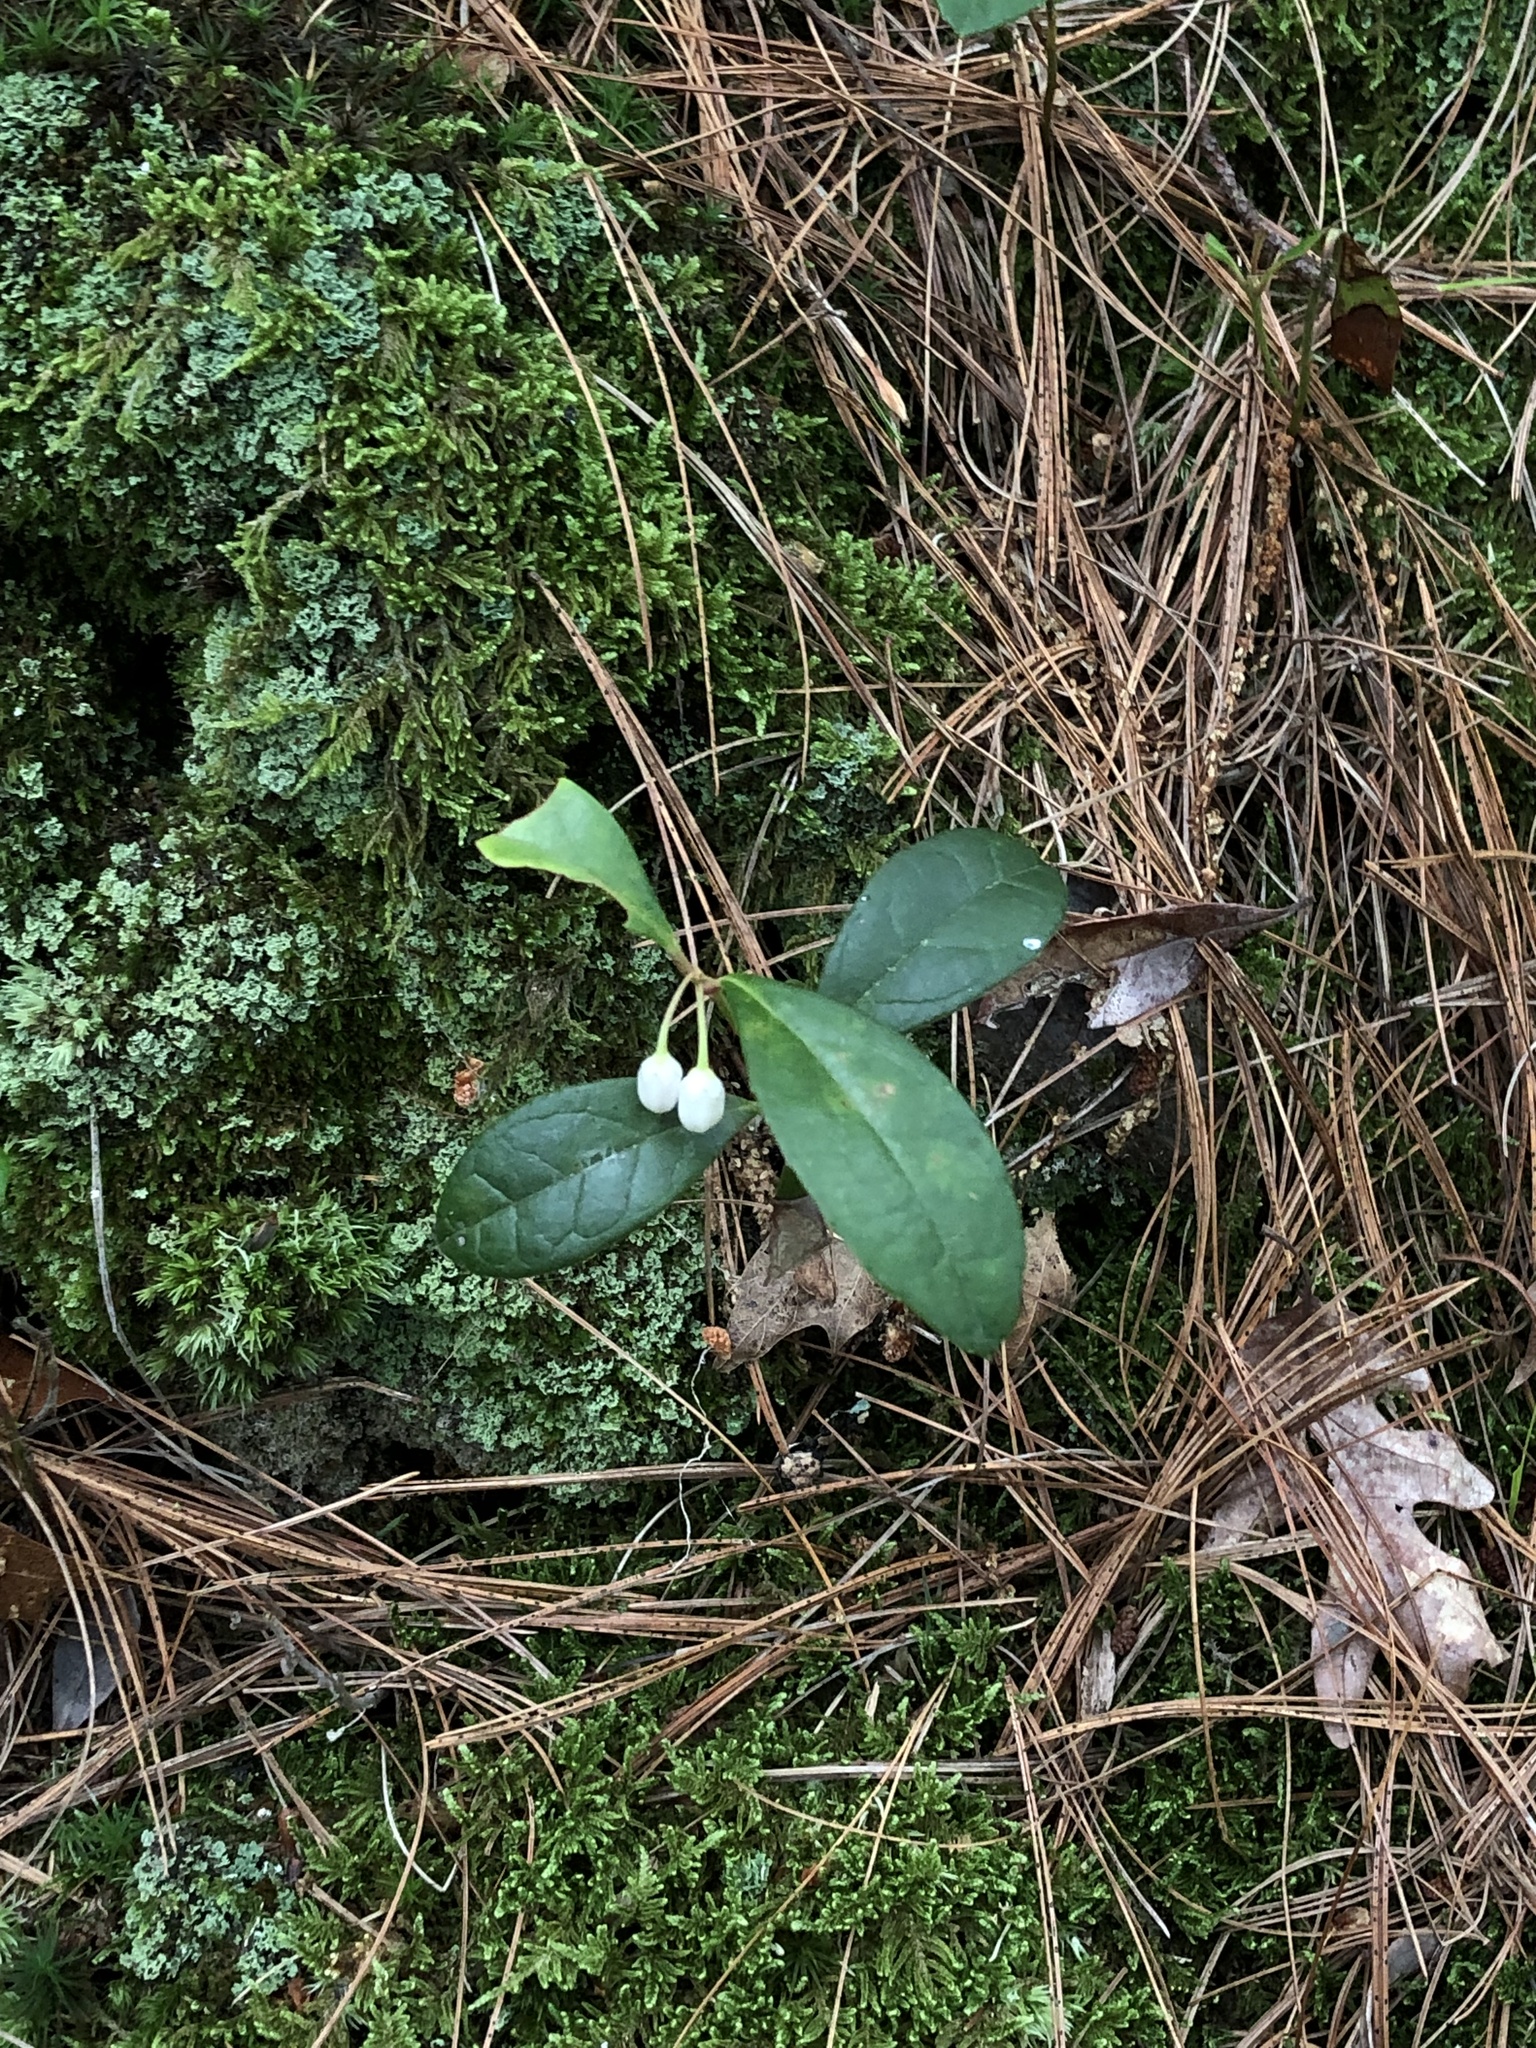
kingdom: Plantae
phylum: Tracheophyta
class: Magnoliopsida
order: Ericales
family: Ericaceae
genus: Gaultheria
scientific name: Gaultheria procumbens
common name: Checkerberry
